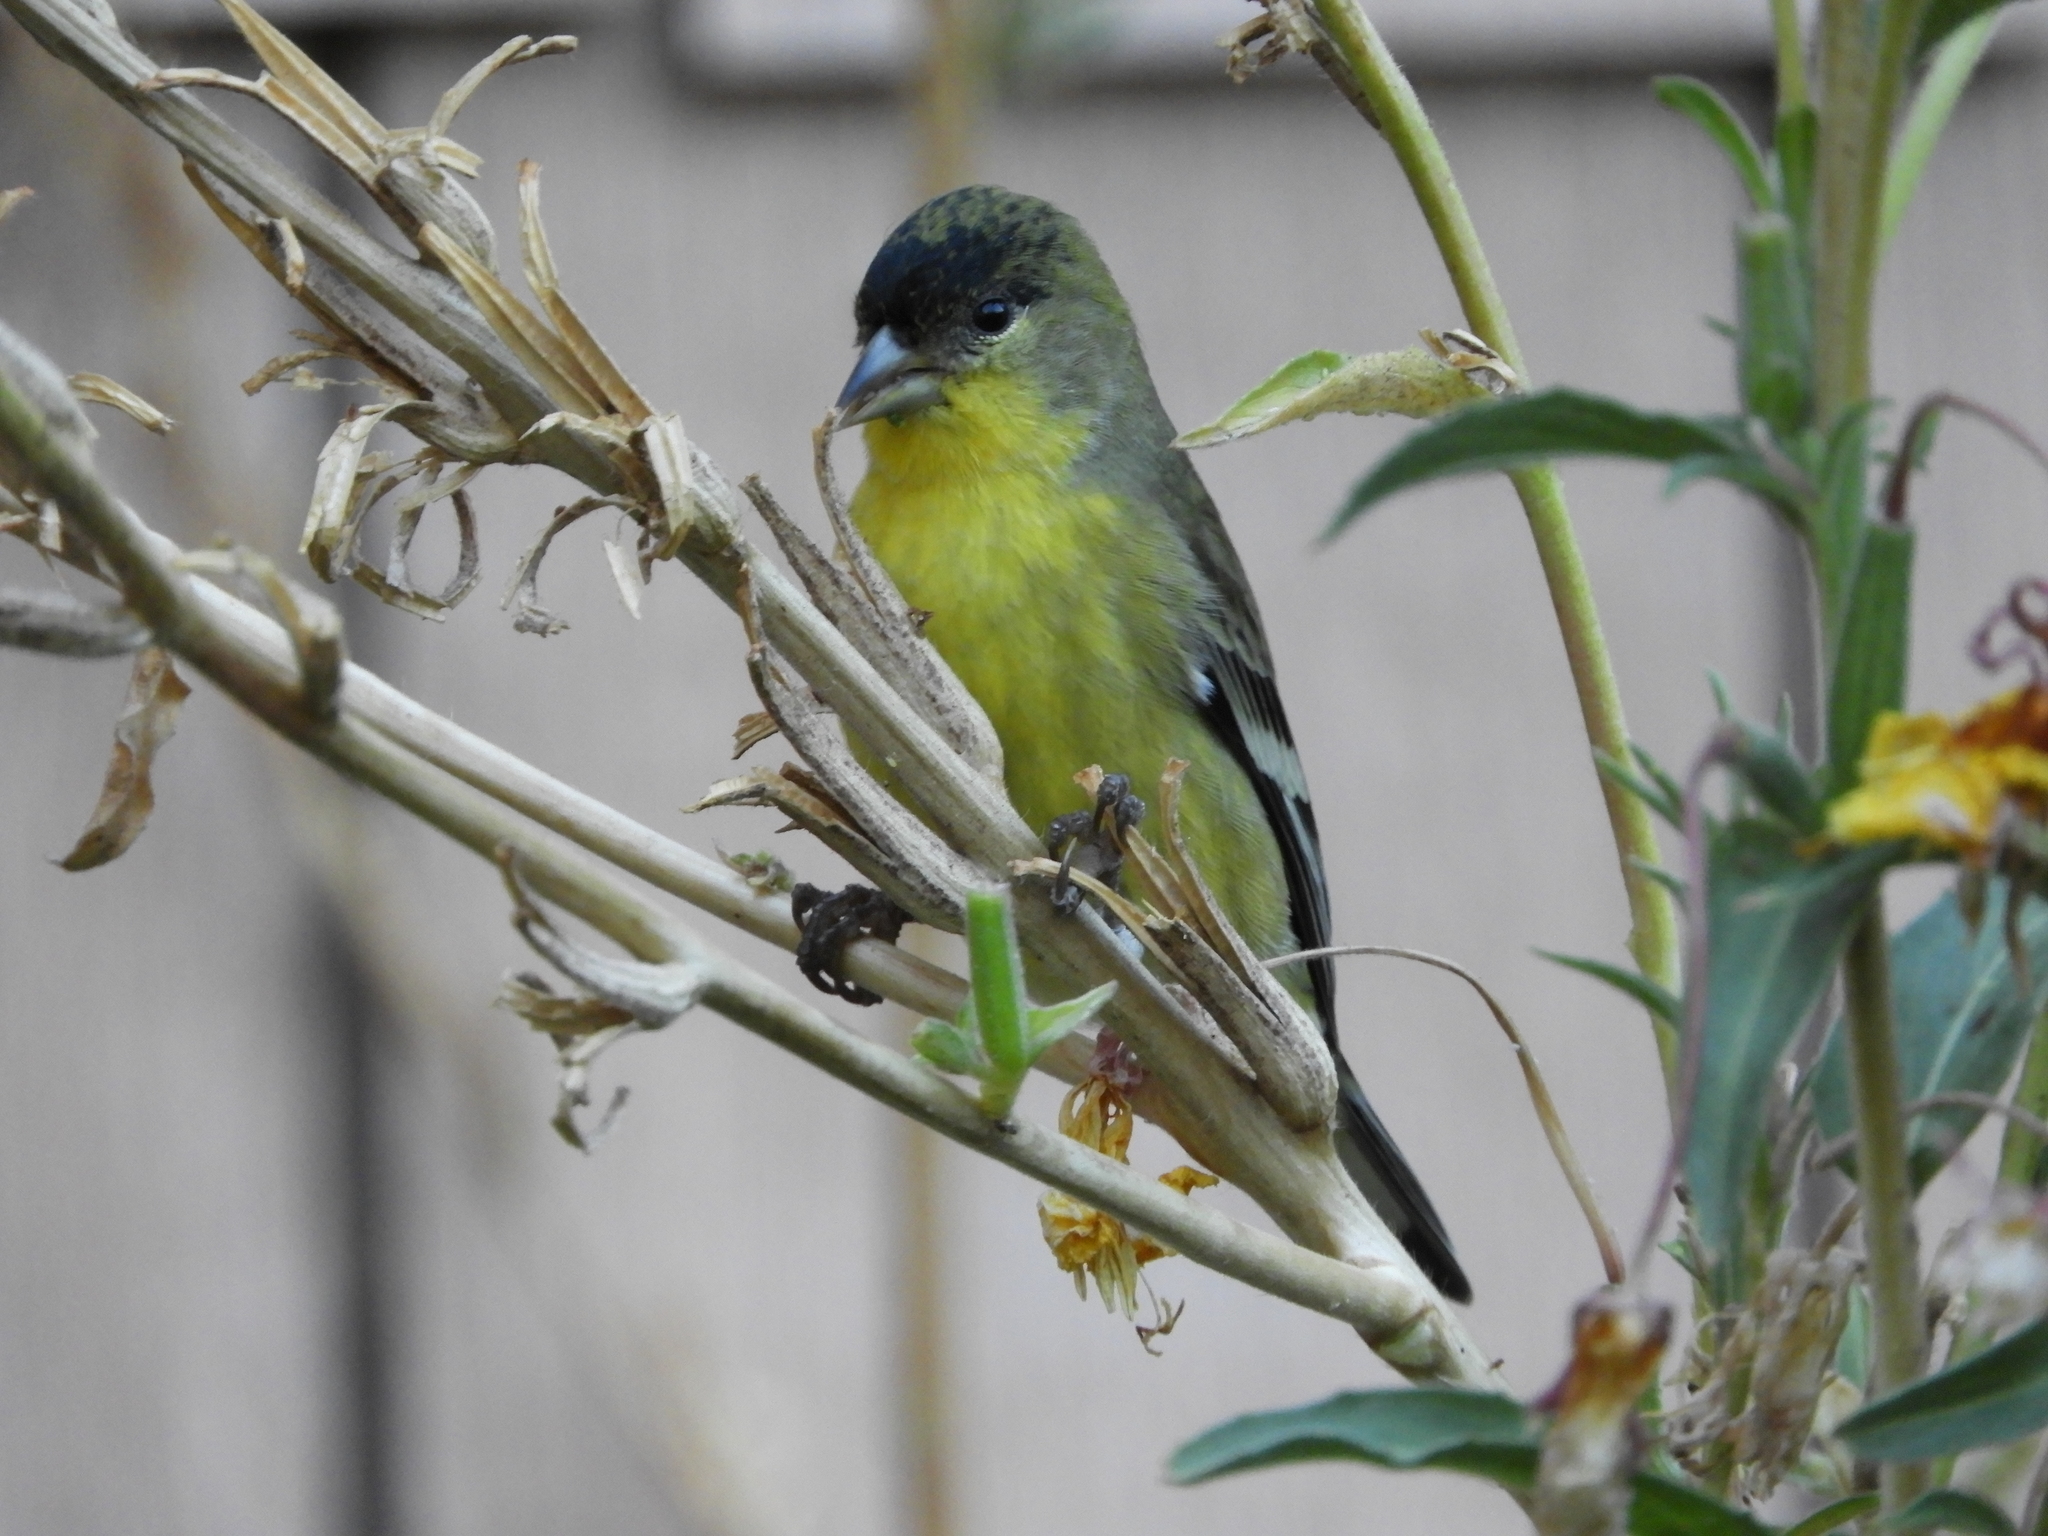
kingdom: Animalia
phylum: Chordata
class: Aves
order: Passeriformes
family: Fringillidae
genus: Spinus
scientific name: Spinus psaltria
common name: Lesser goldfinch
